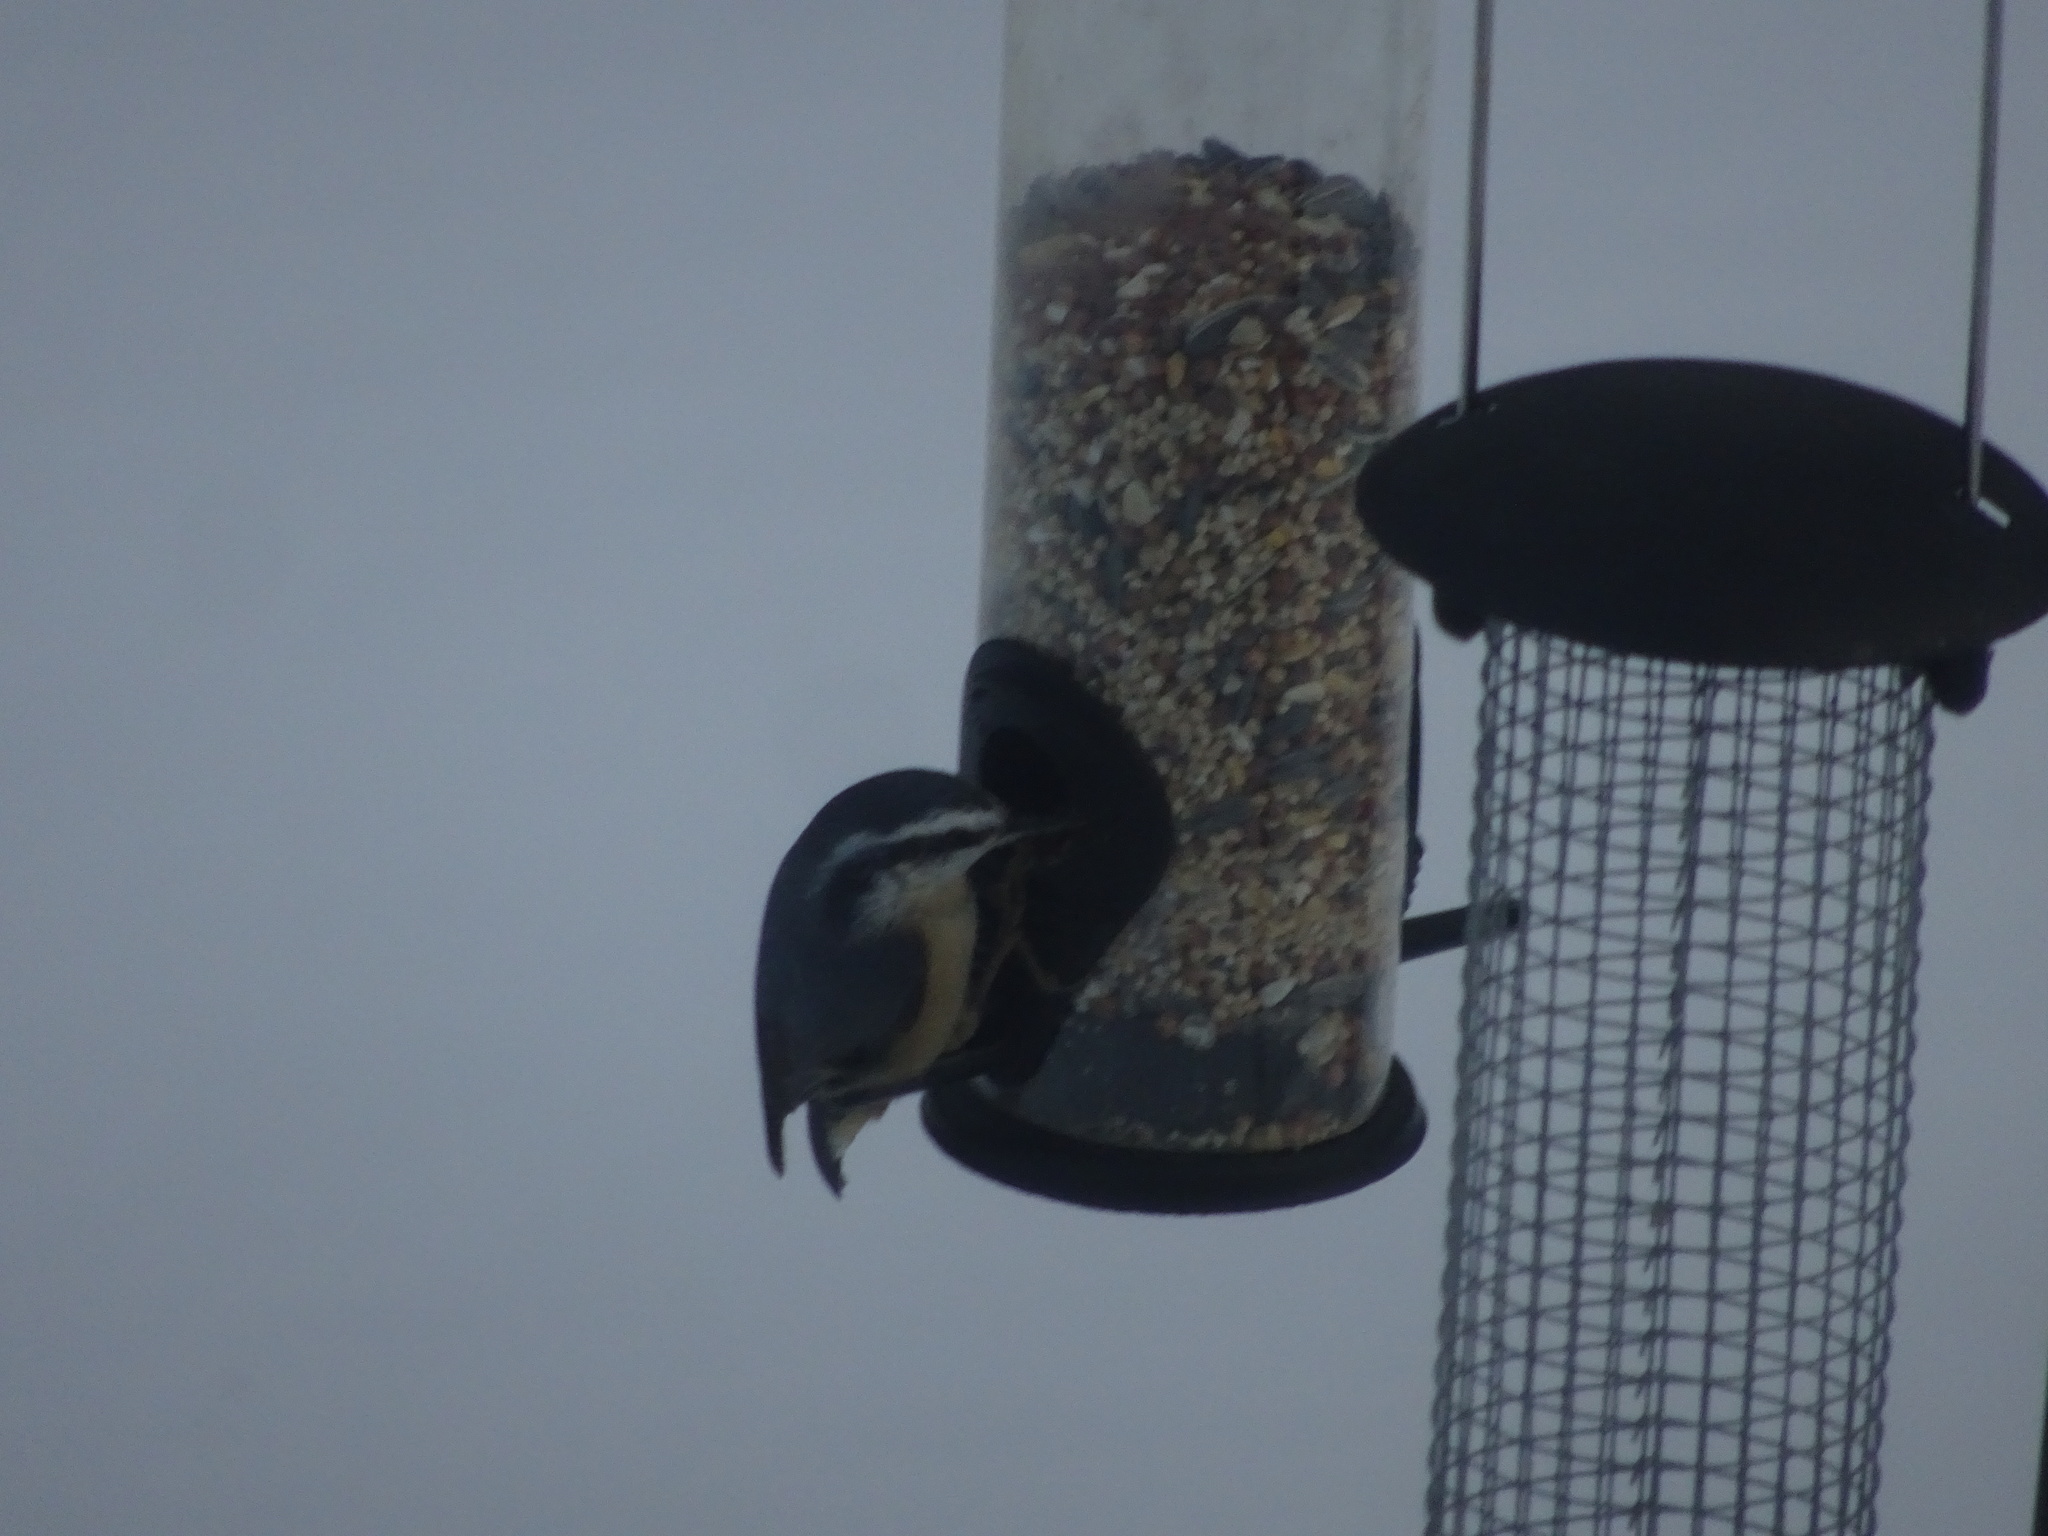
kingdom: Animalia
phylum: Chordata
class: Aves
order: Passeriformes
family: Sittidae
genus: Sitta
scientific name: Sitta canadensis
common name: Red-breasted nuthatch
